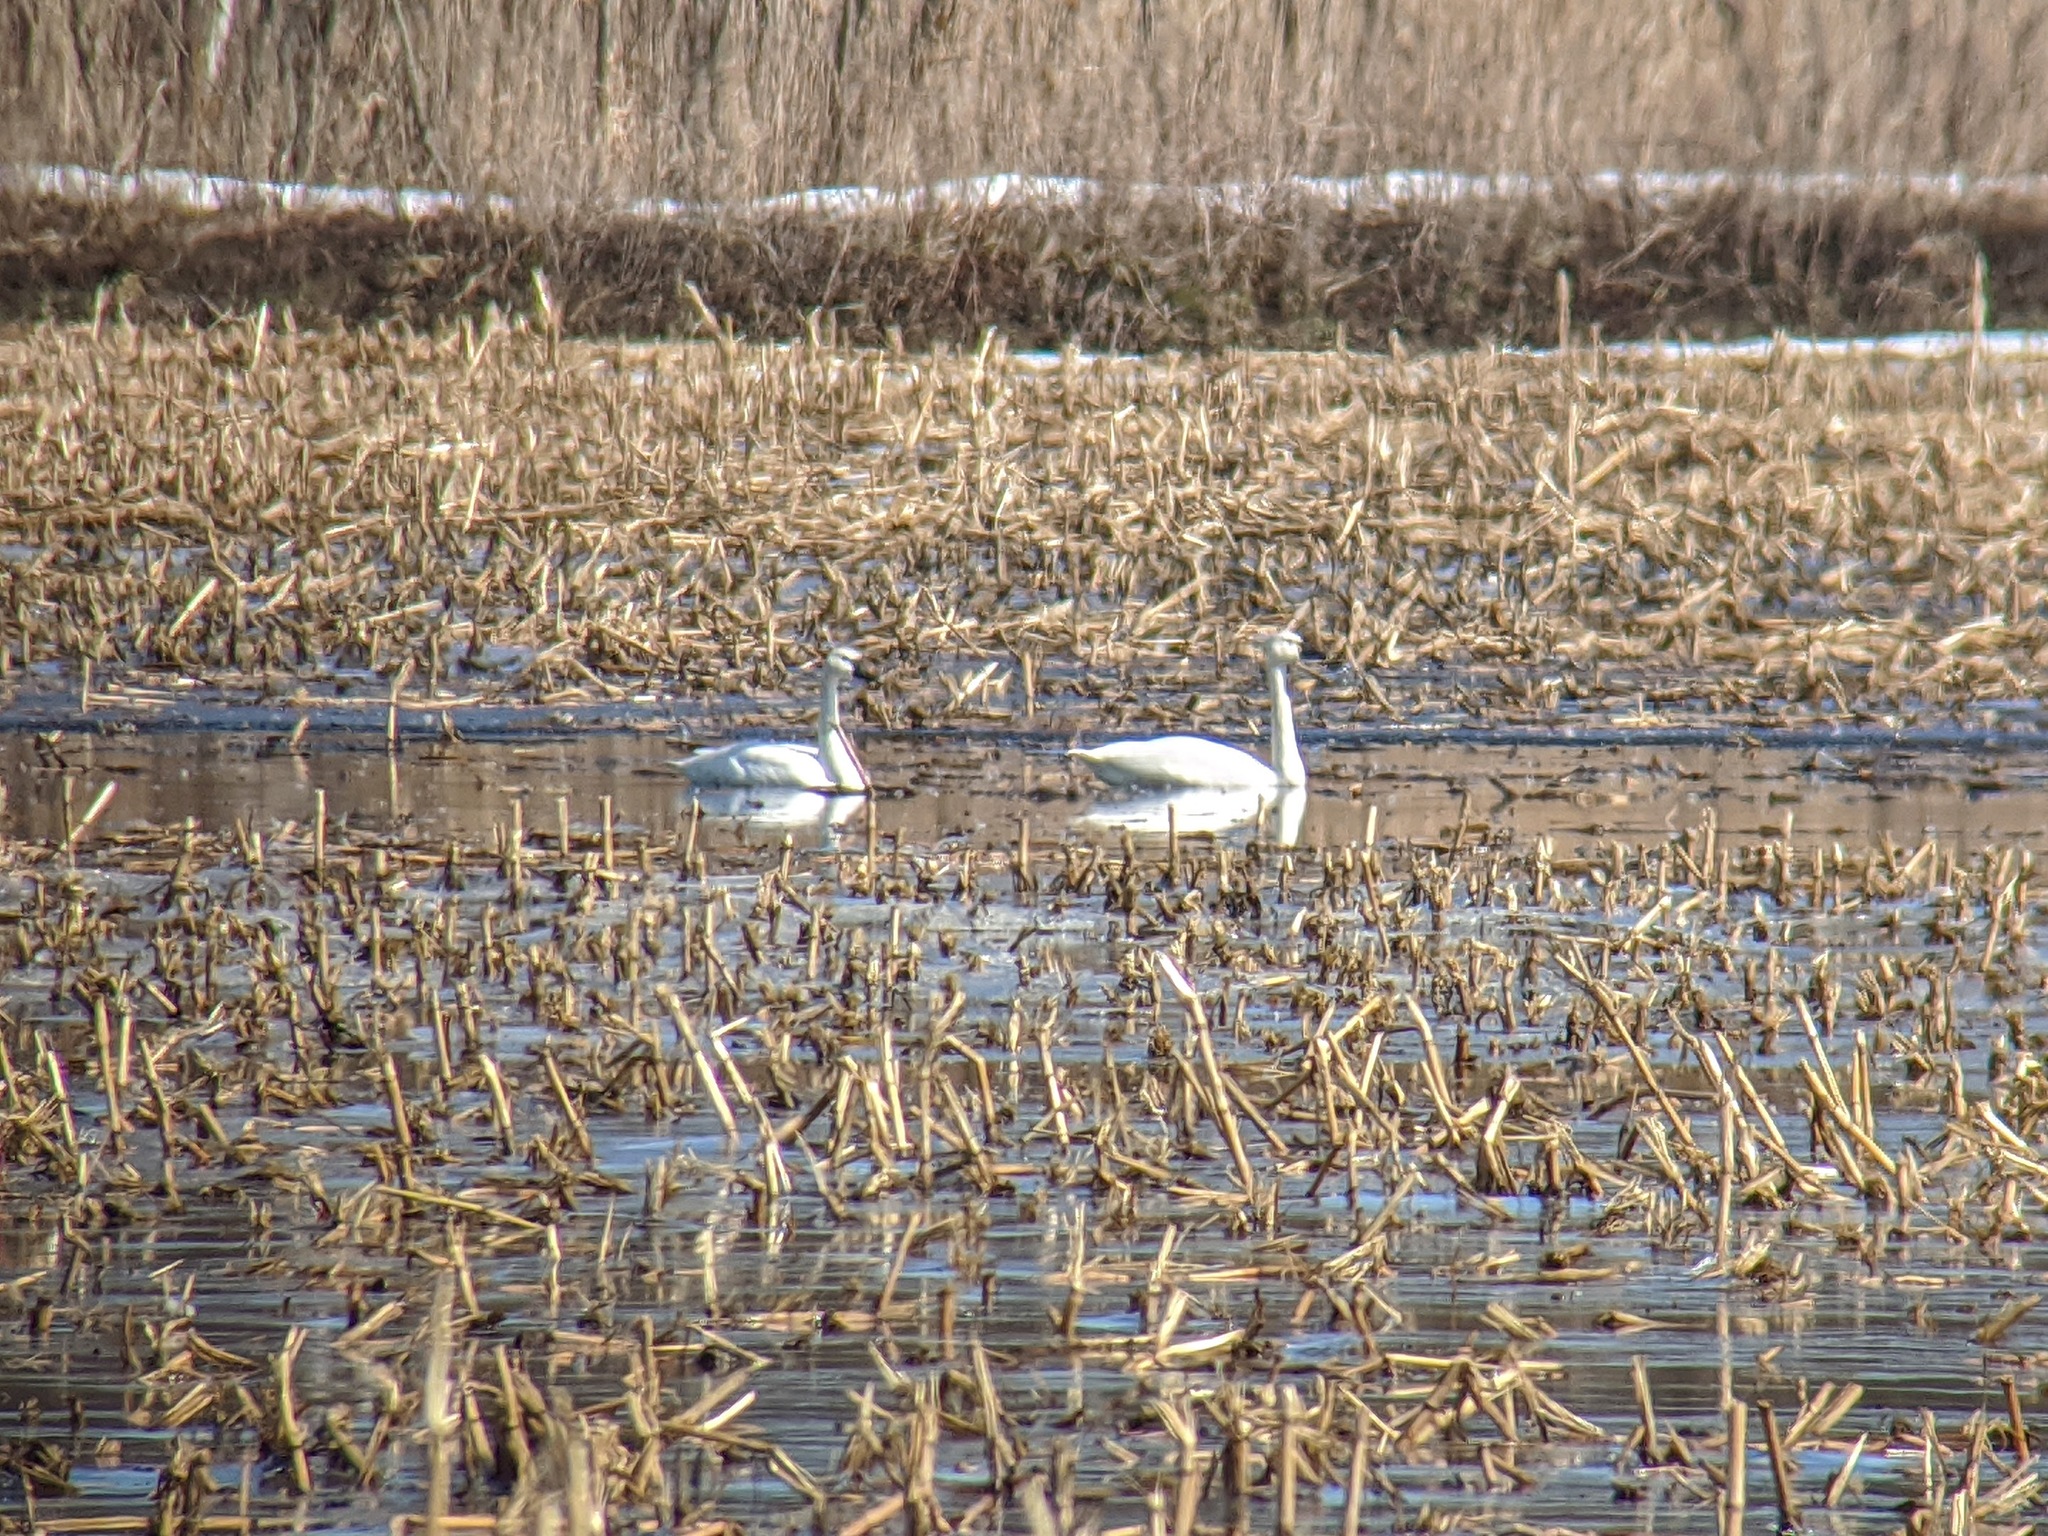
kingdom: Animalia
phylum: Chordata
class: Aves
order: Anseriformes
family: Anatidae
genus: Cygnus
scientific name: Cygnus columbianus
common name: Tundra swan
